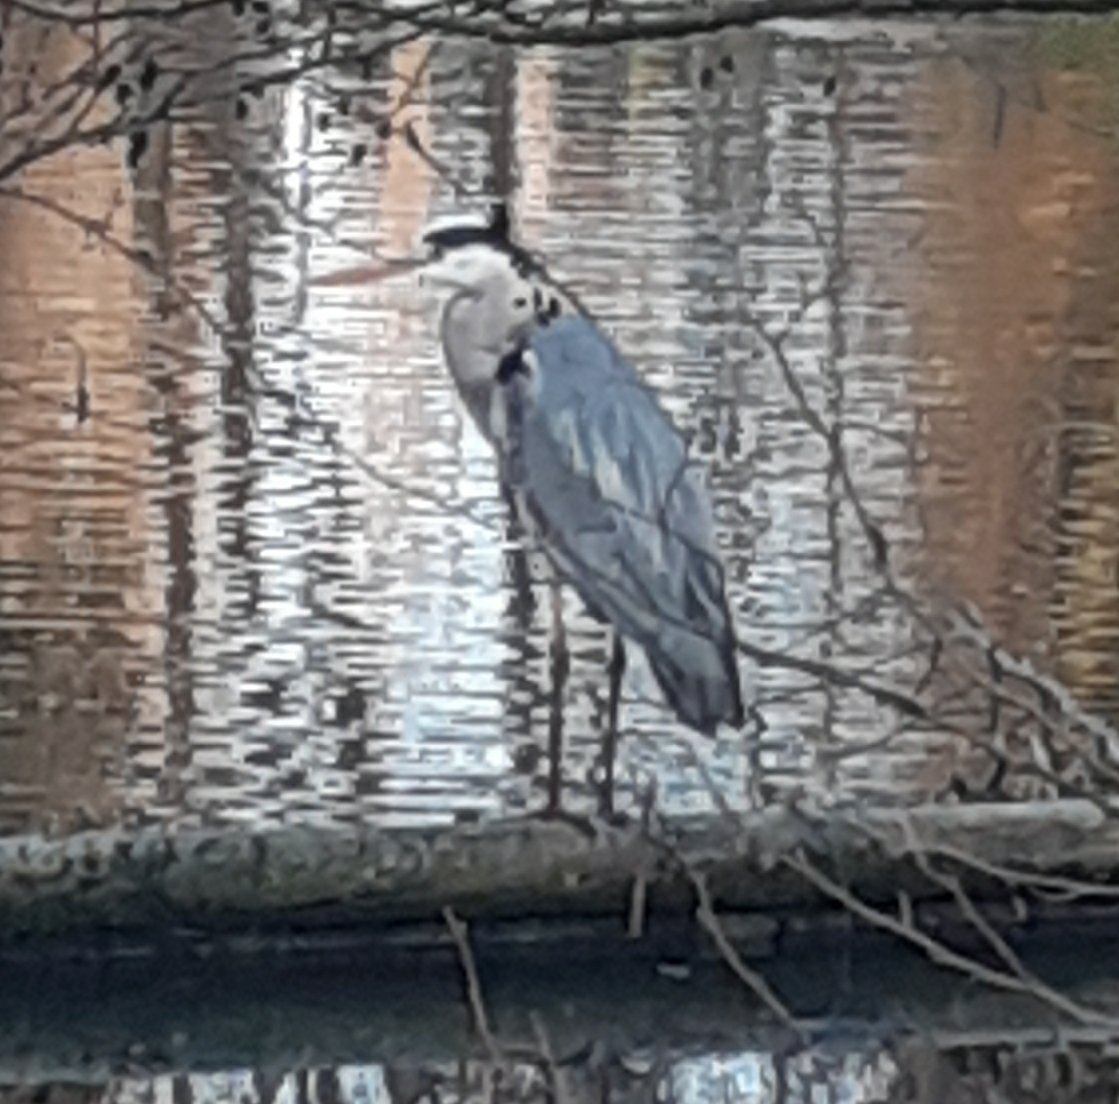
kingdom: Animalia
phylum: Chordata
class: Aves
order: Pelecaniformes
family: Ardeidae
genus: Ardea
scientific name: Ardea cinerea
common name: Grey heron
